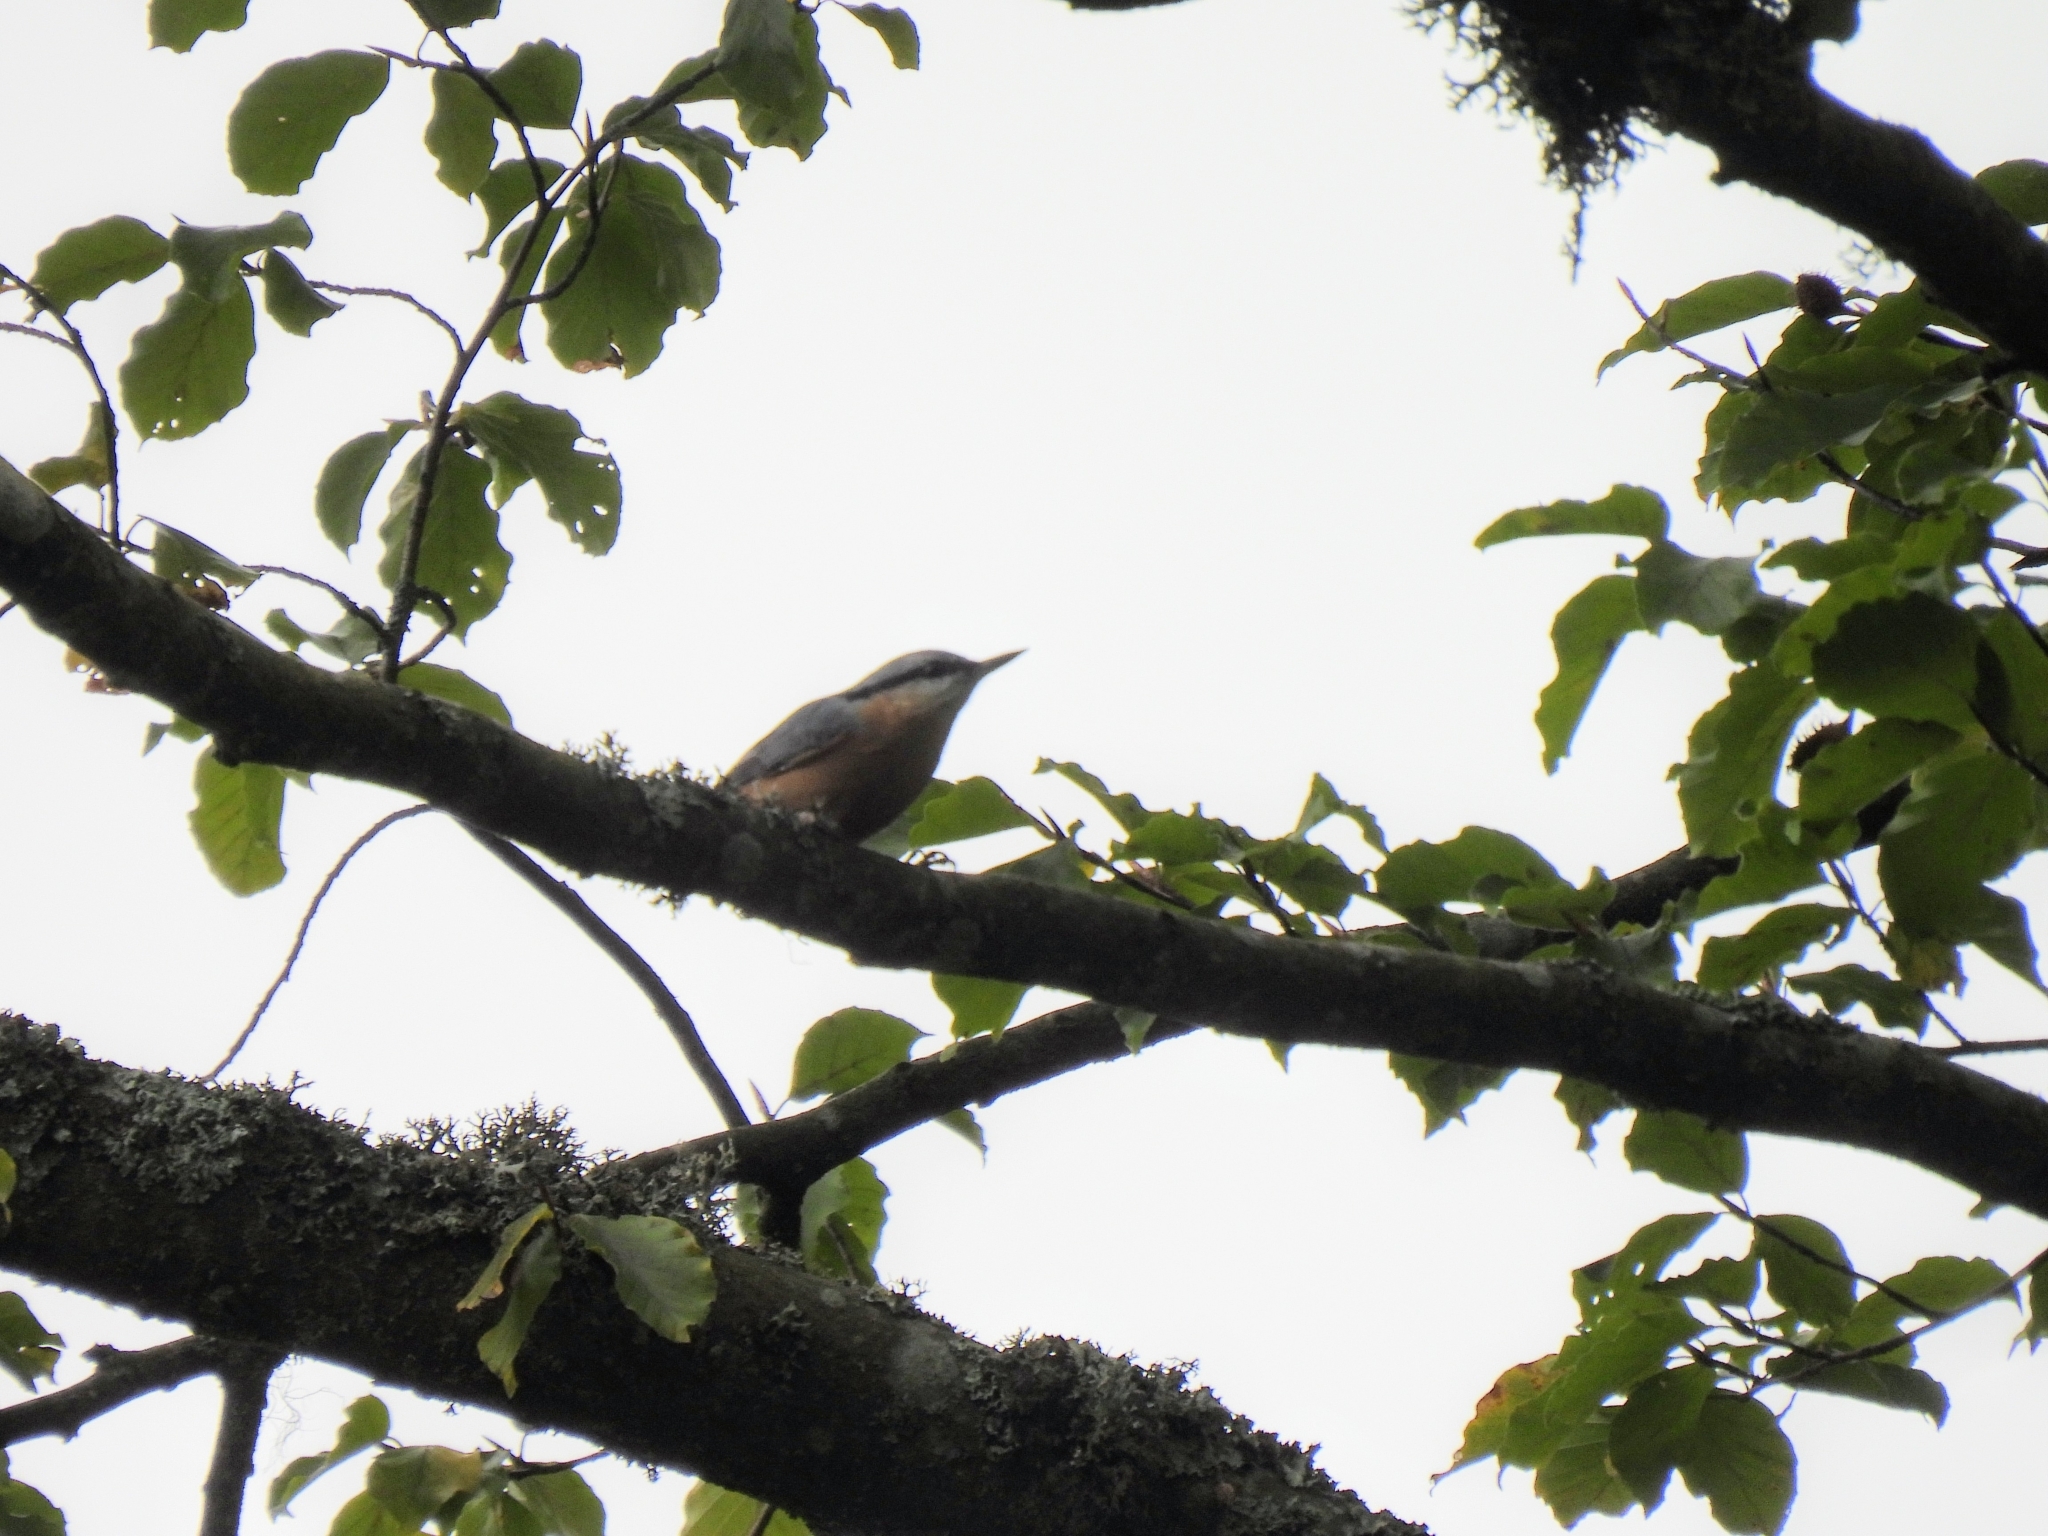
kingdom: Animalia
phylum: Chordata
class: Aves
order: Passeriformes
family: Sittidae
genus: Sitta
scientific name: Sitta europaea
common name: Eurasian nuthatch
